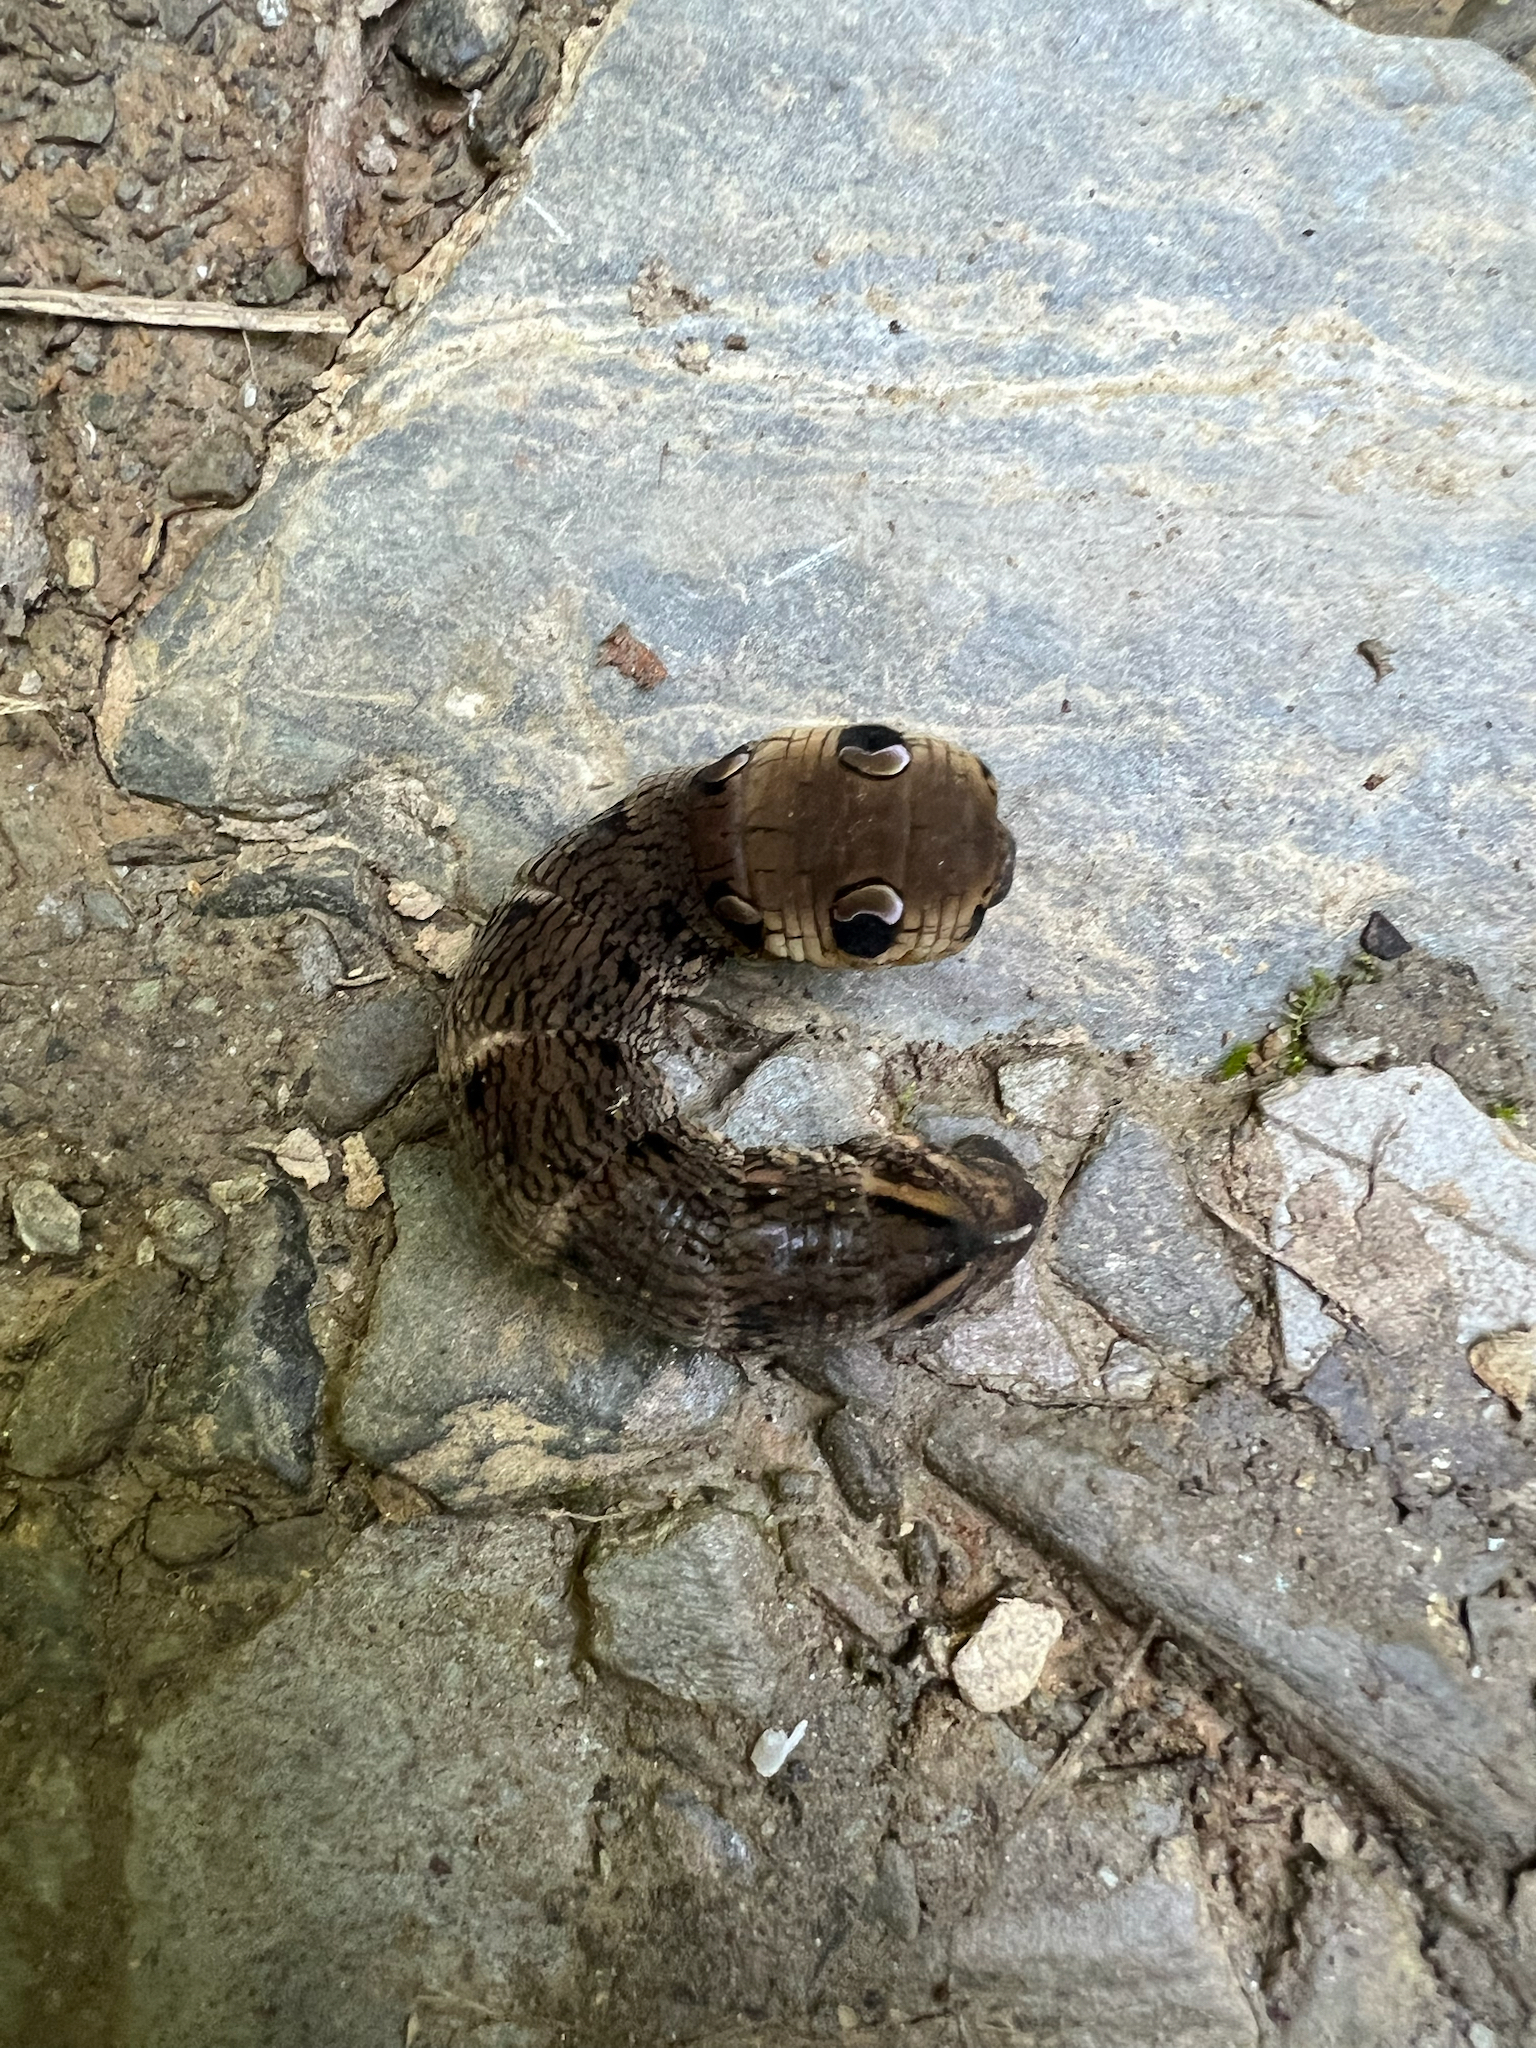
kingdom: Animalia
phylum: Arthropoda
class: Insecta
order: Lepidoptera
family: Sphingidae
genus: Deilephila
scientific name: Deilephila elpenor
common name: Elephant hawk-moth
